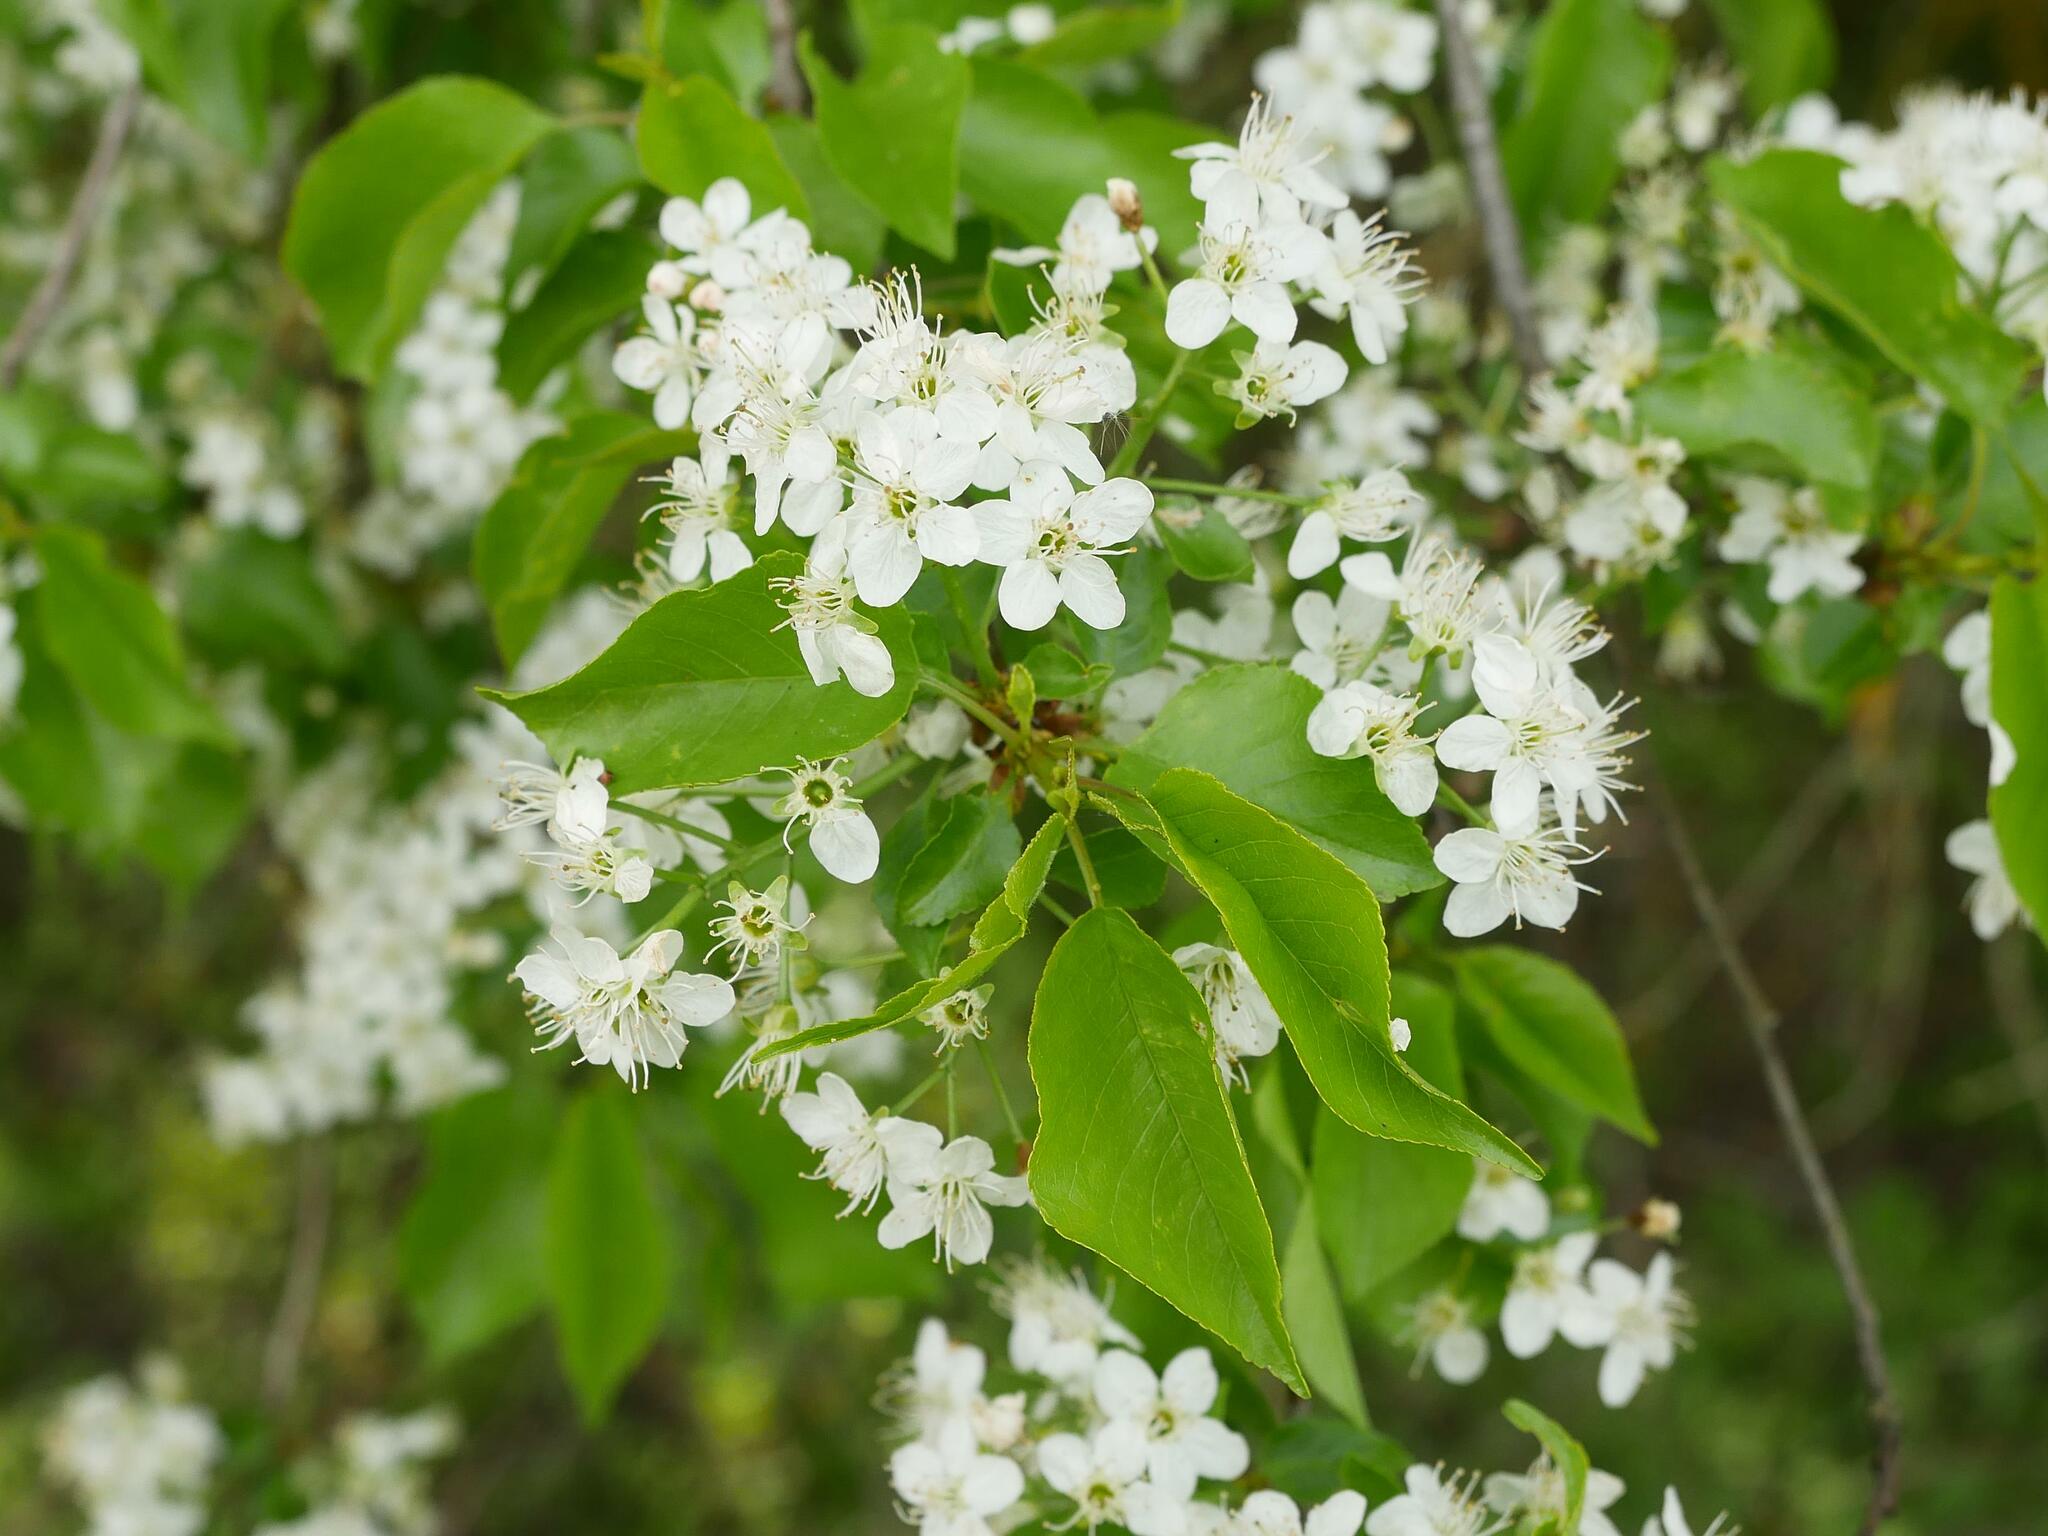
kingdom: Plantae
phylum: Tracheophyta
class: Magnoliopsida
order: Rosales
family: Rosaceae
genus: Prunus
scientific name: Prunus mahaleb
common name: Mahaleb cherry
